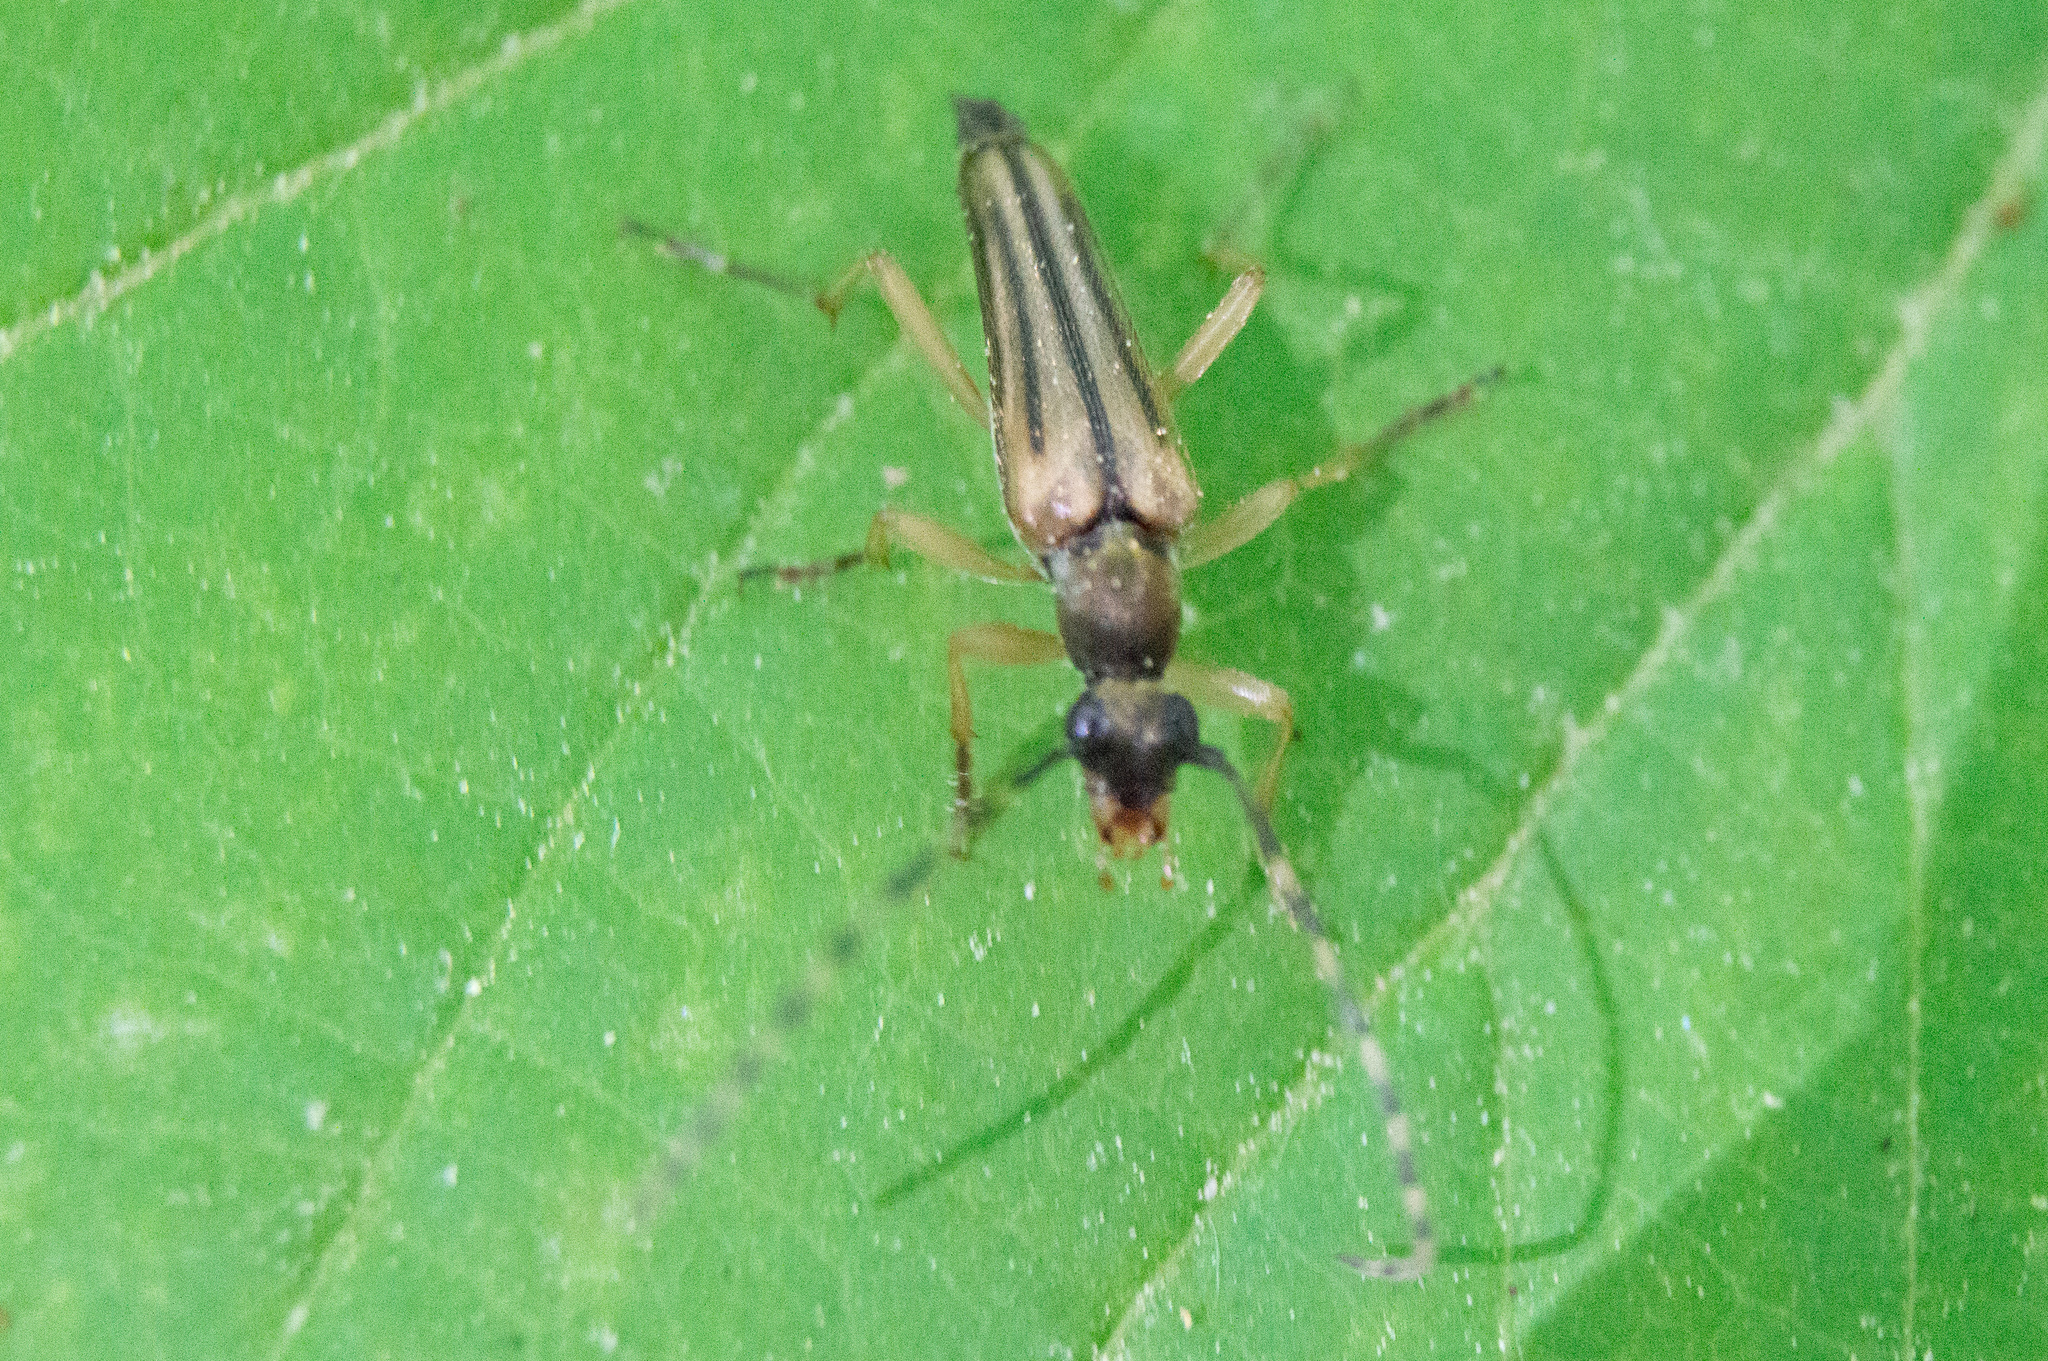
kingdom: Animalia
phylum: Arthropoda
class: Insecta
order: Coleoptera
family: Cerambycidae
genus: Analeptura
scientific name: Analeptura lineola
